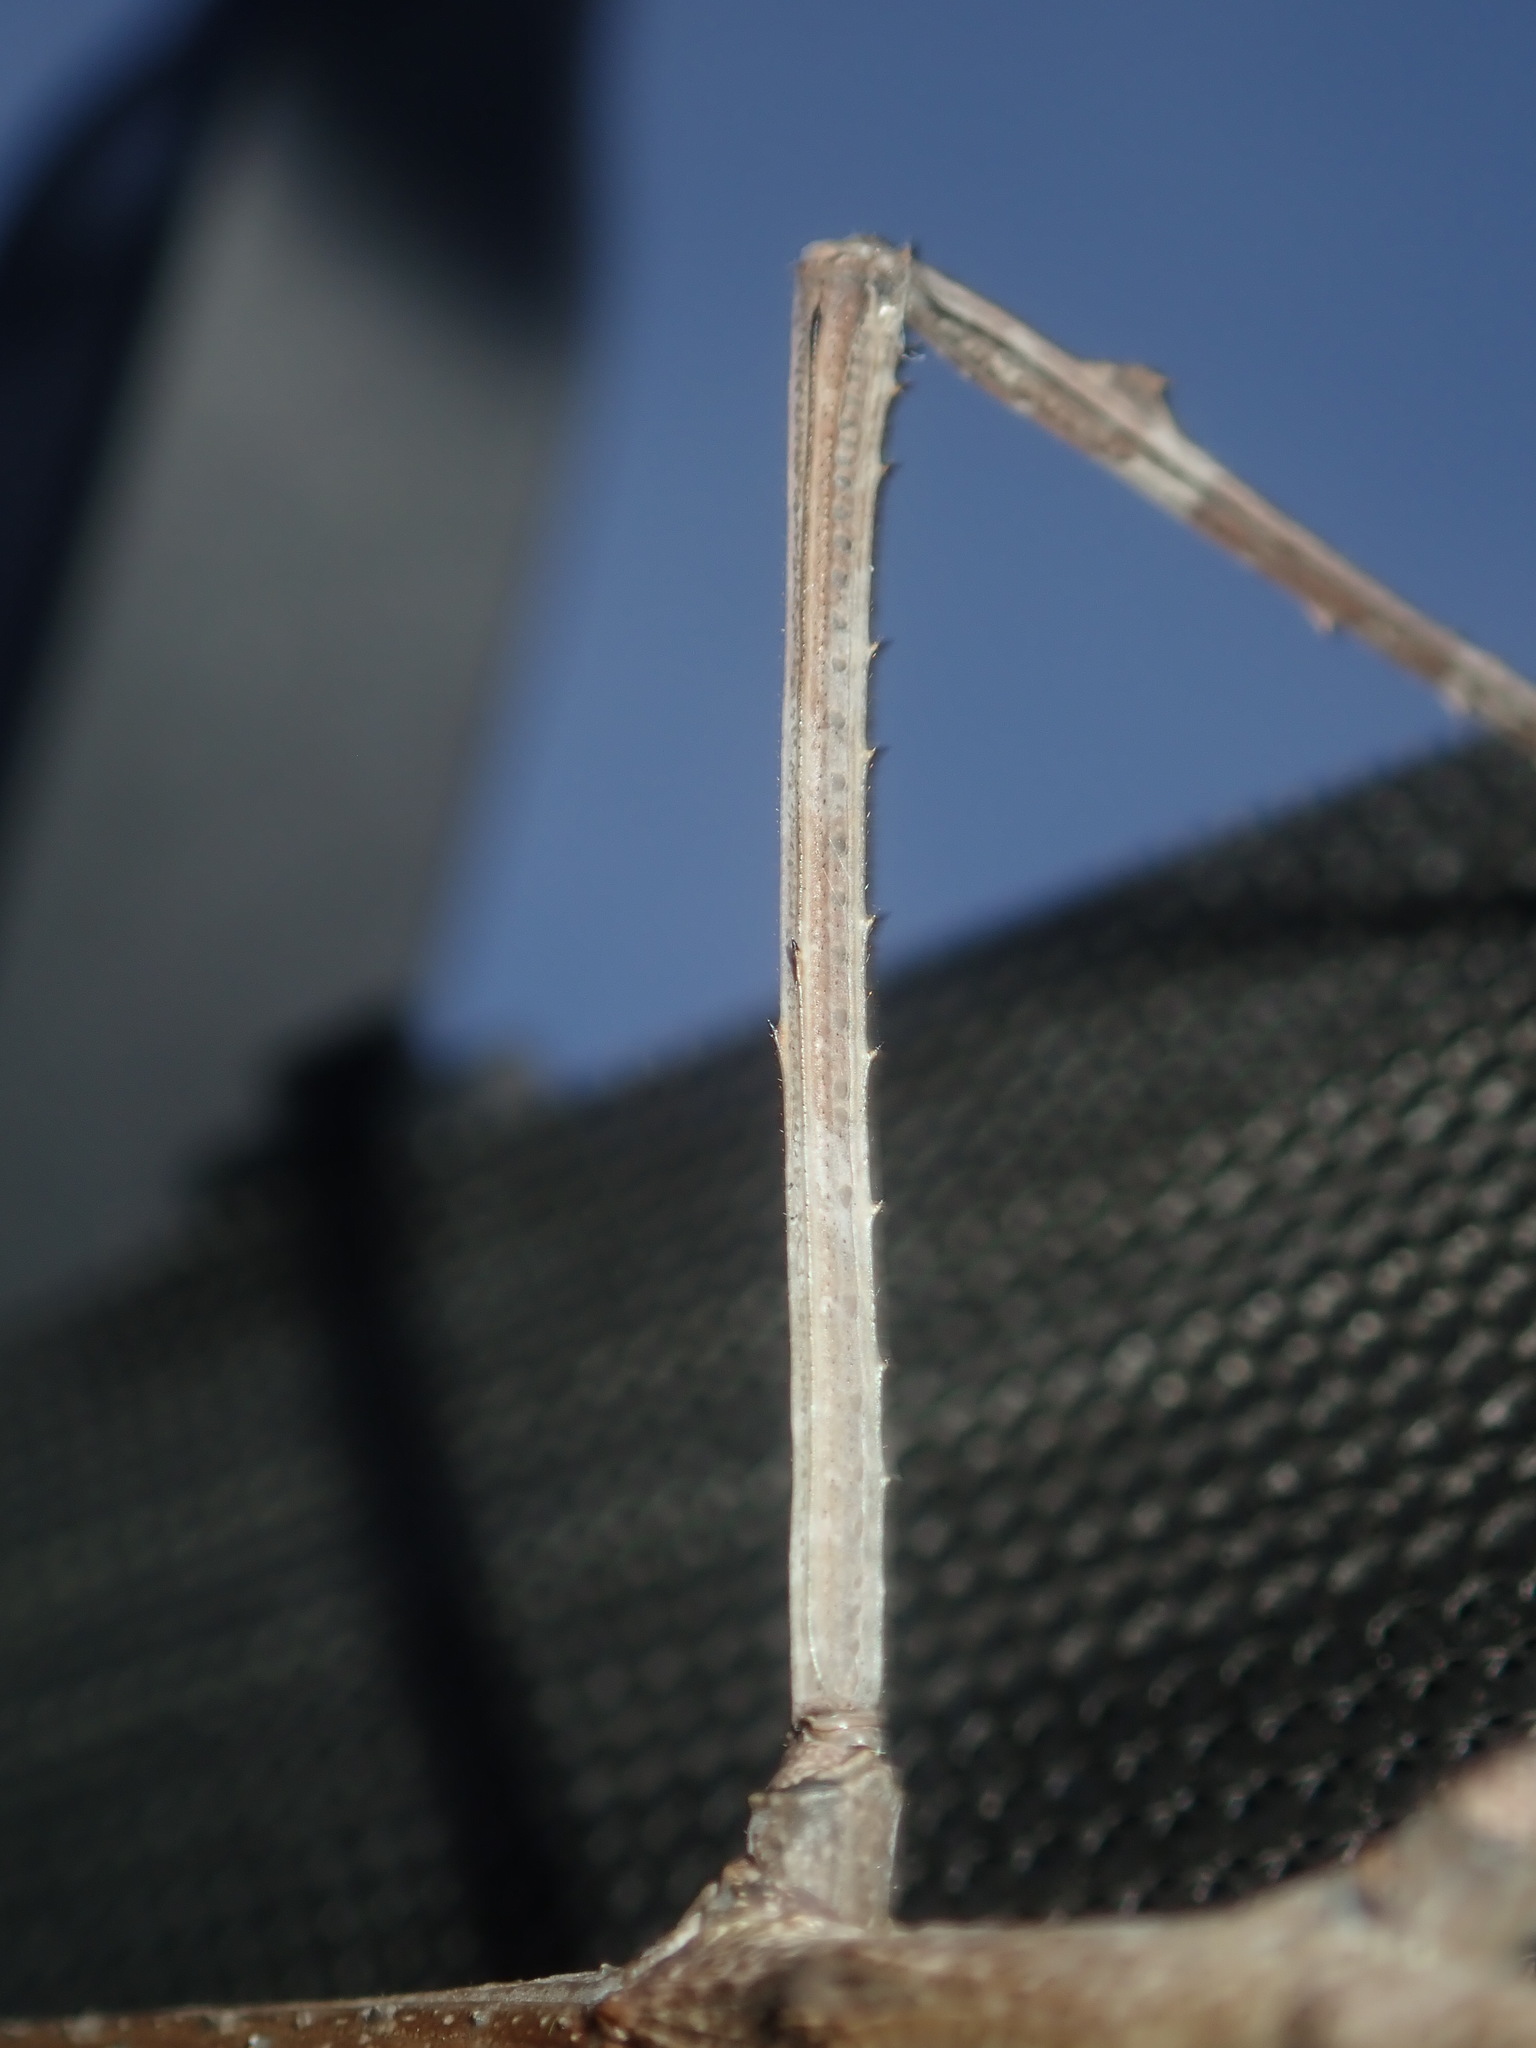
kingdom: Animalia
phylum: Arthropoda
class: Insecta
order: Phasmida
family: Phasmatidae
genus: Ctenomorpha
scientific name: Ctenomorpha marginipennis
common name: Margined-winged stick-insect
